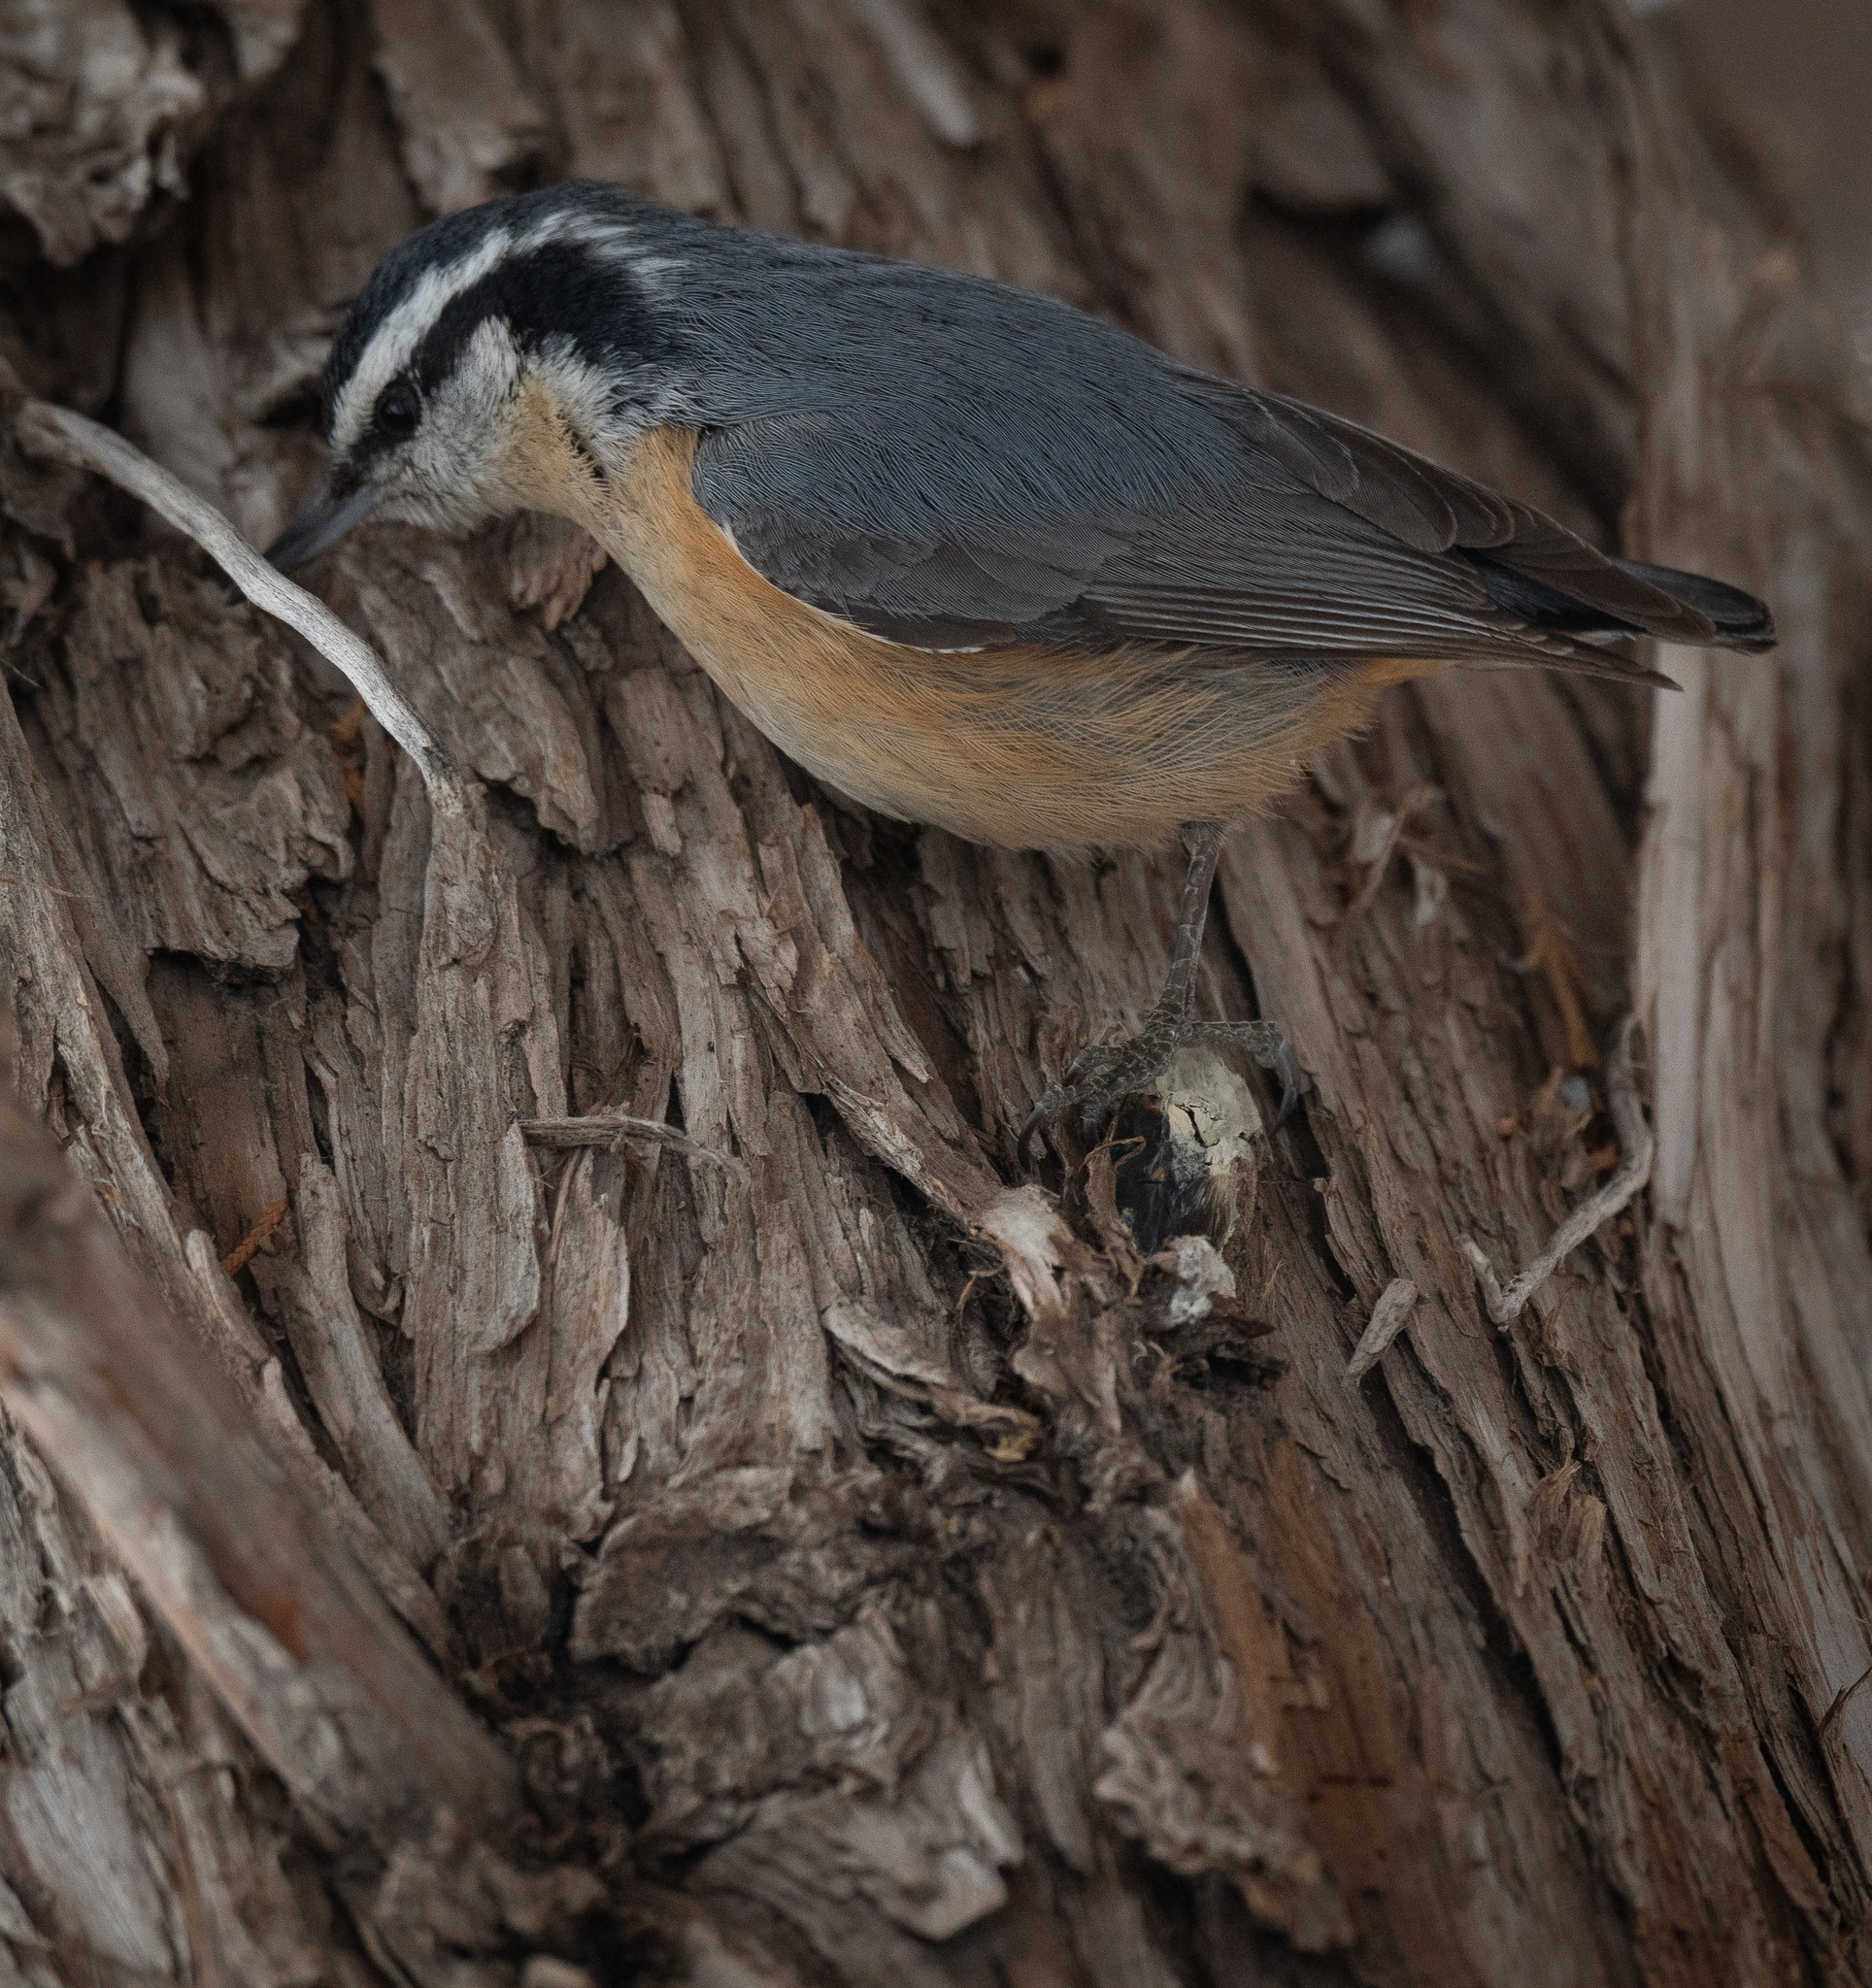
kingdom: Animalia
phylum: Chordata
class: Aves
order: Passeriformes
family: Sittidae
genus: Sitta
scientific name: Sitta canadensis
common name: Red-breasted nuthatch
